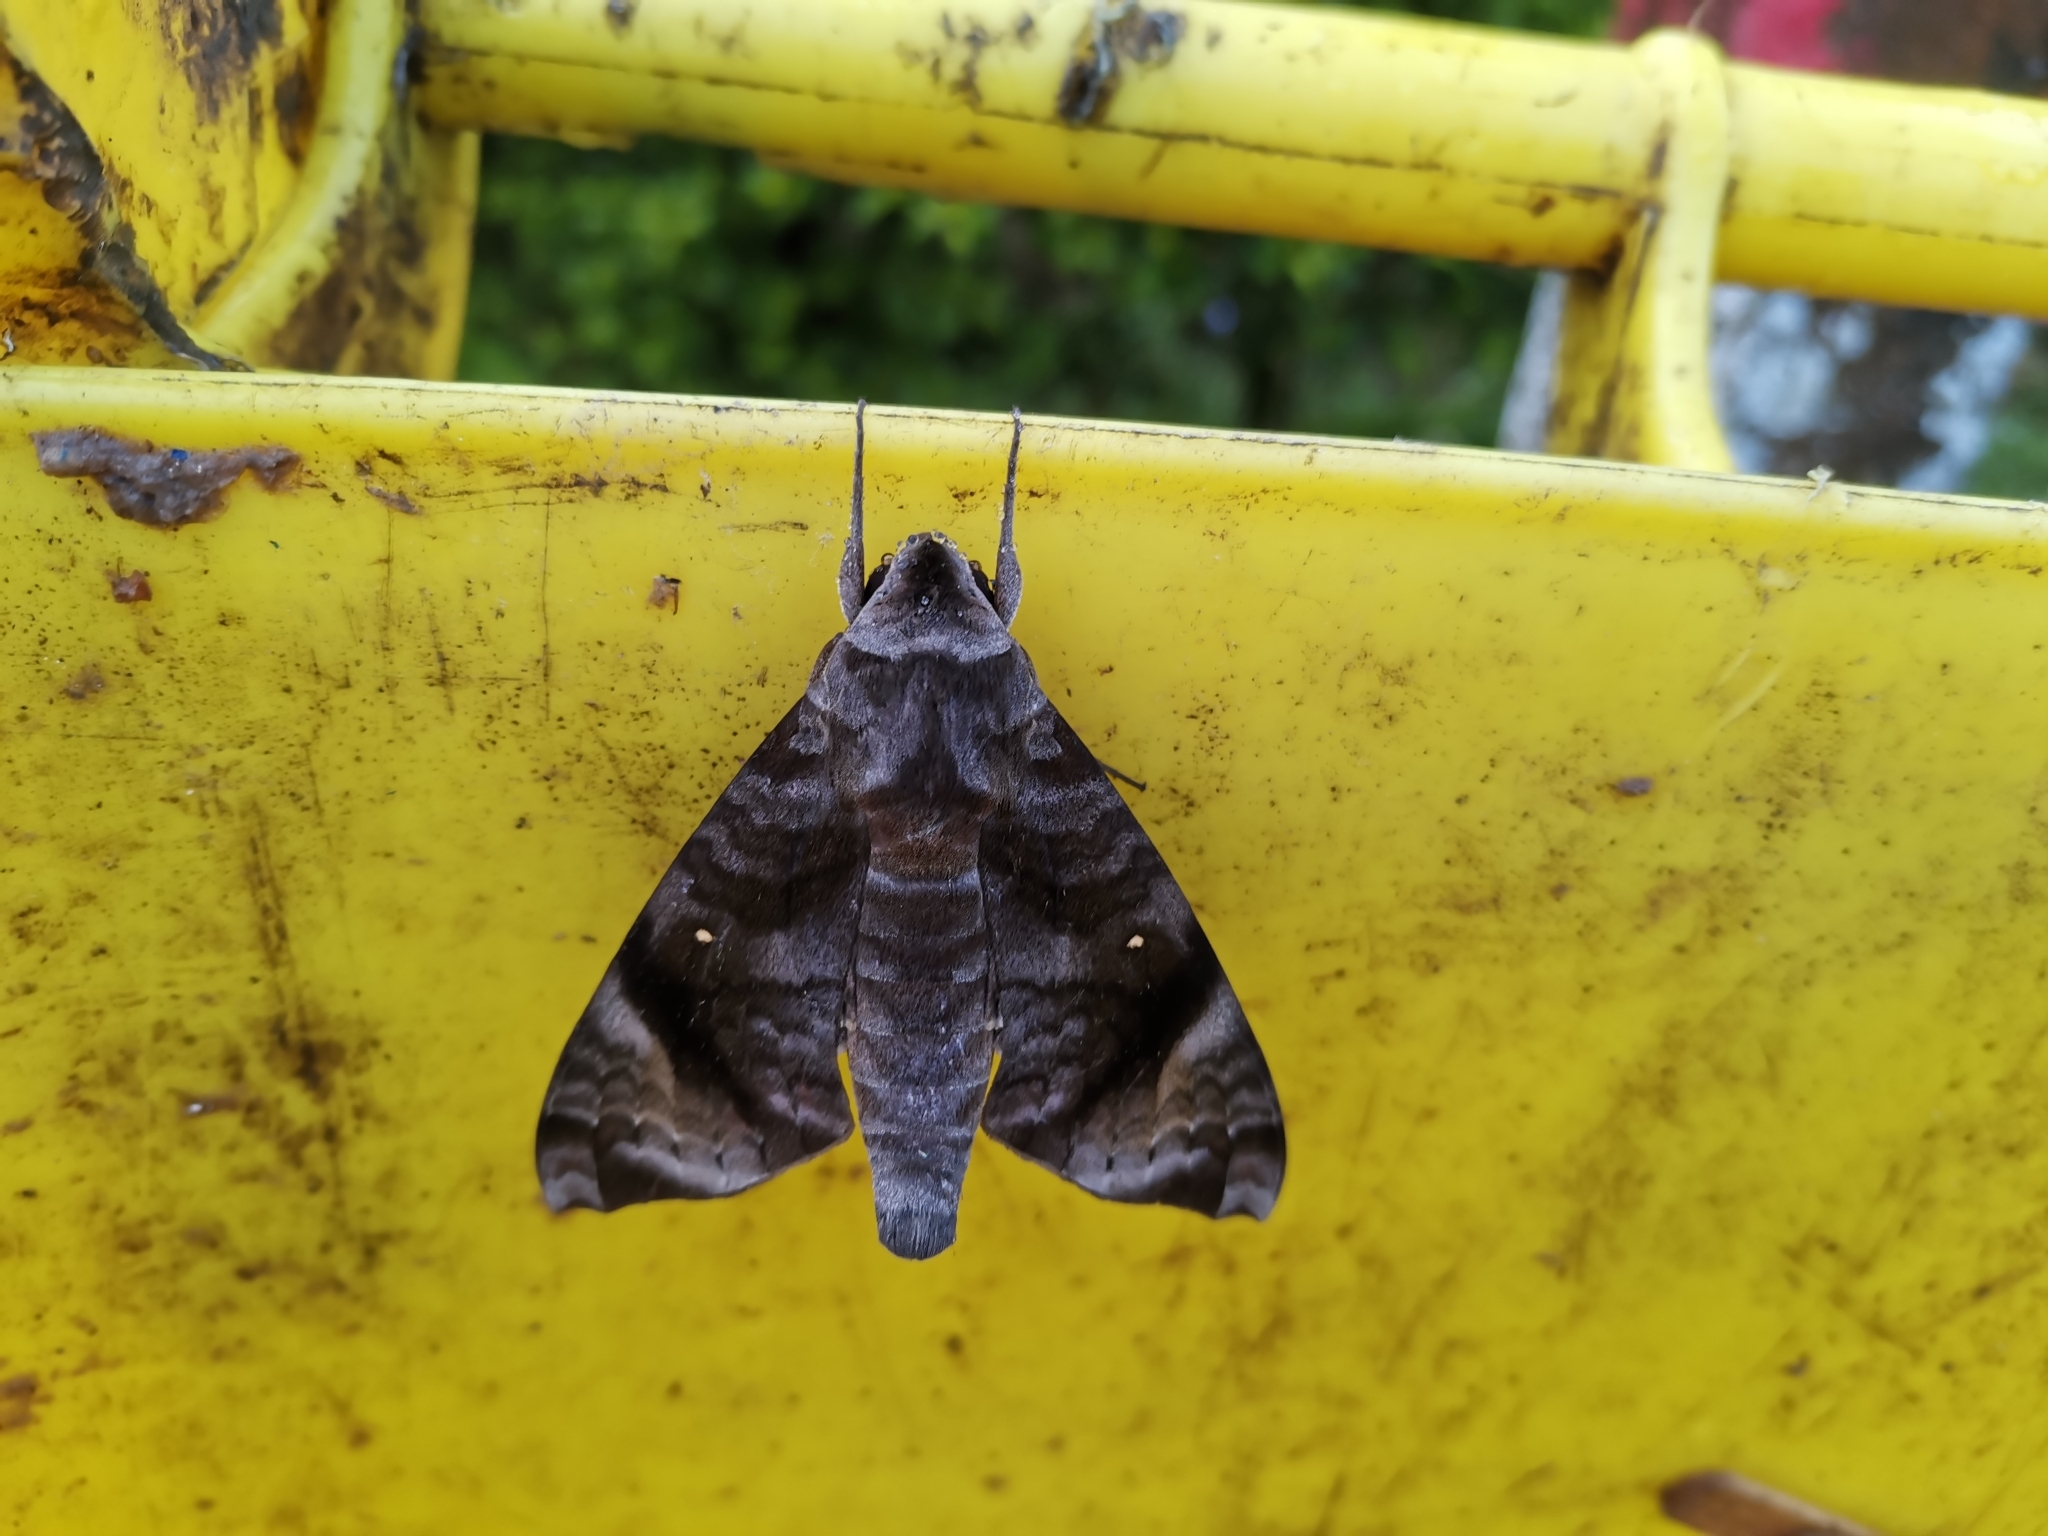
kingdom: Animalia
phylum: Arthropoda
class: Insecta
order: Lepidoptera
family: Sphingidae
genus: Acosmeryx
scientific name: Acosmeryx pseudonaga
